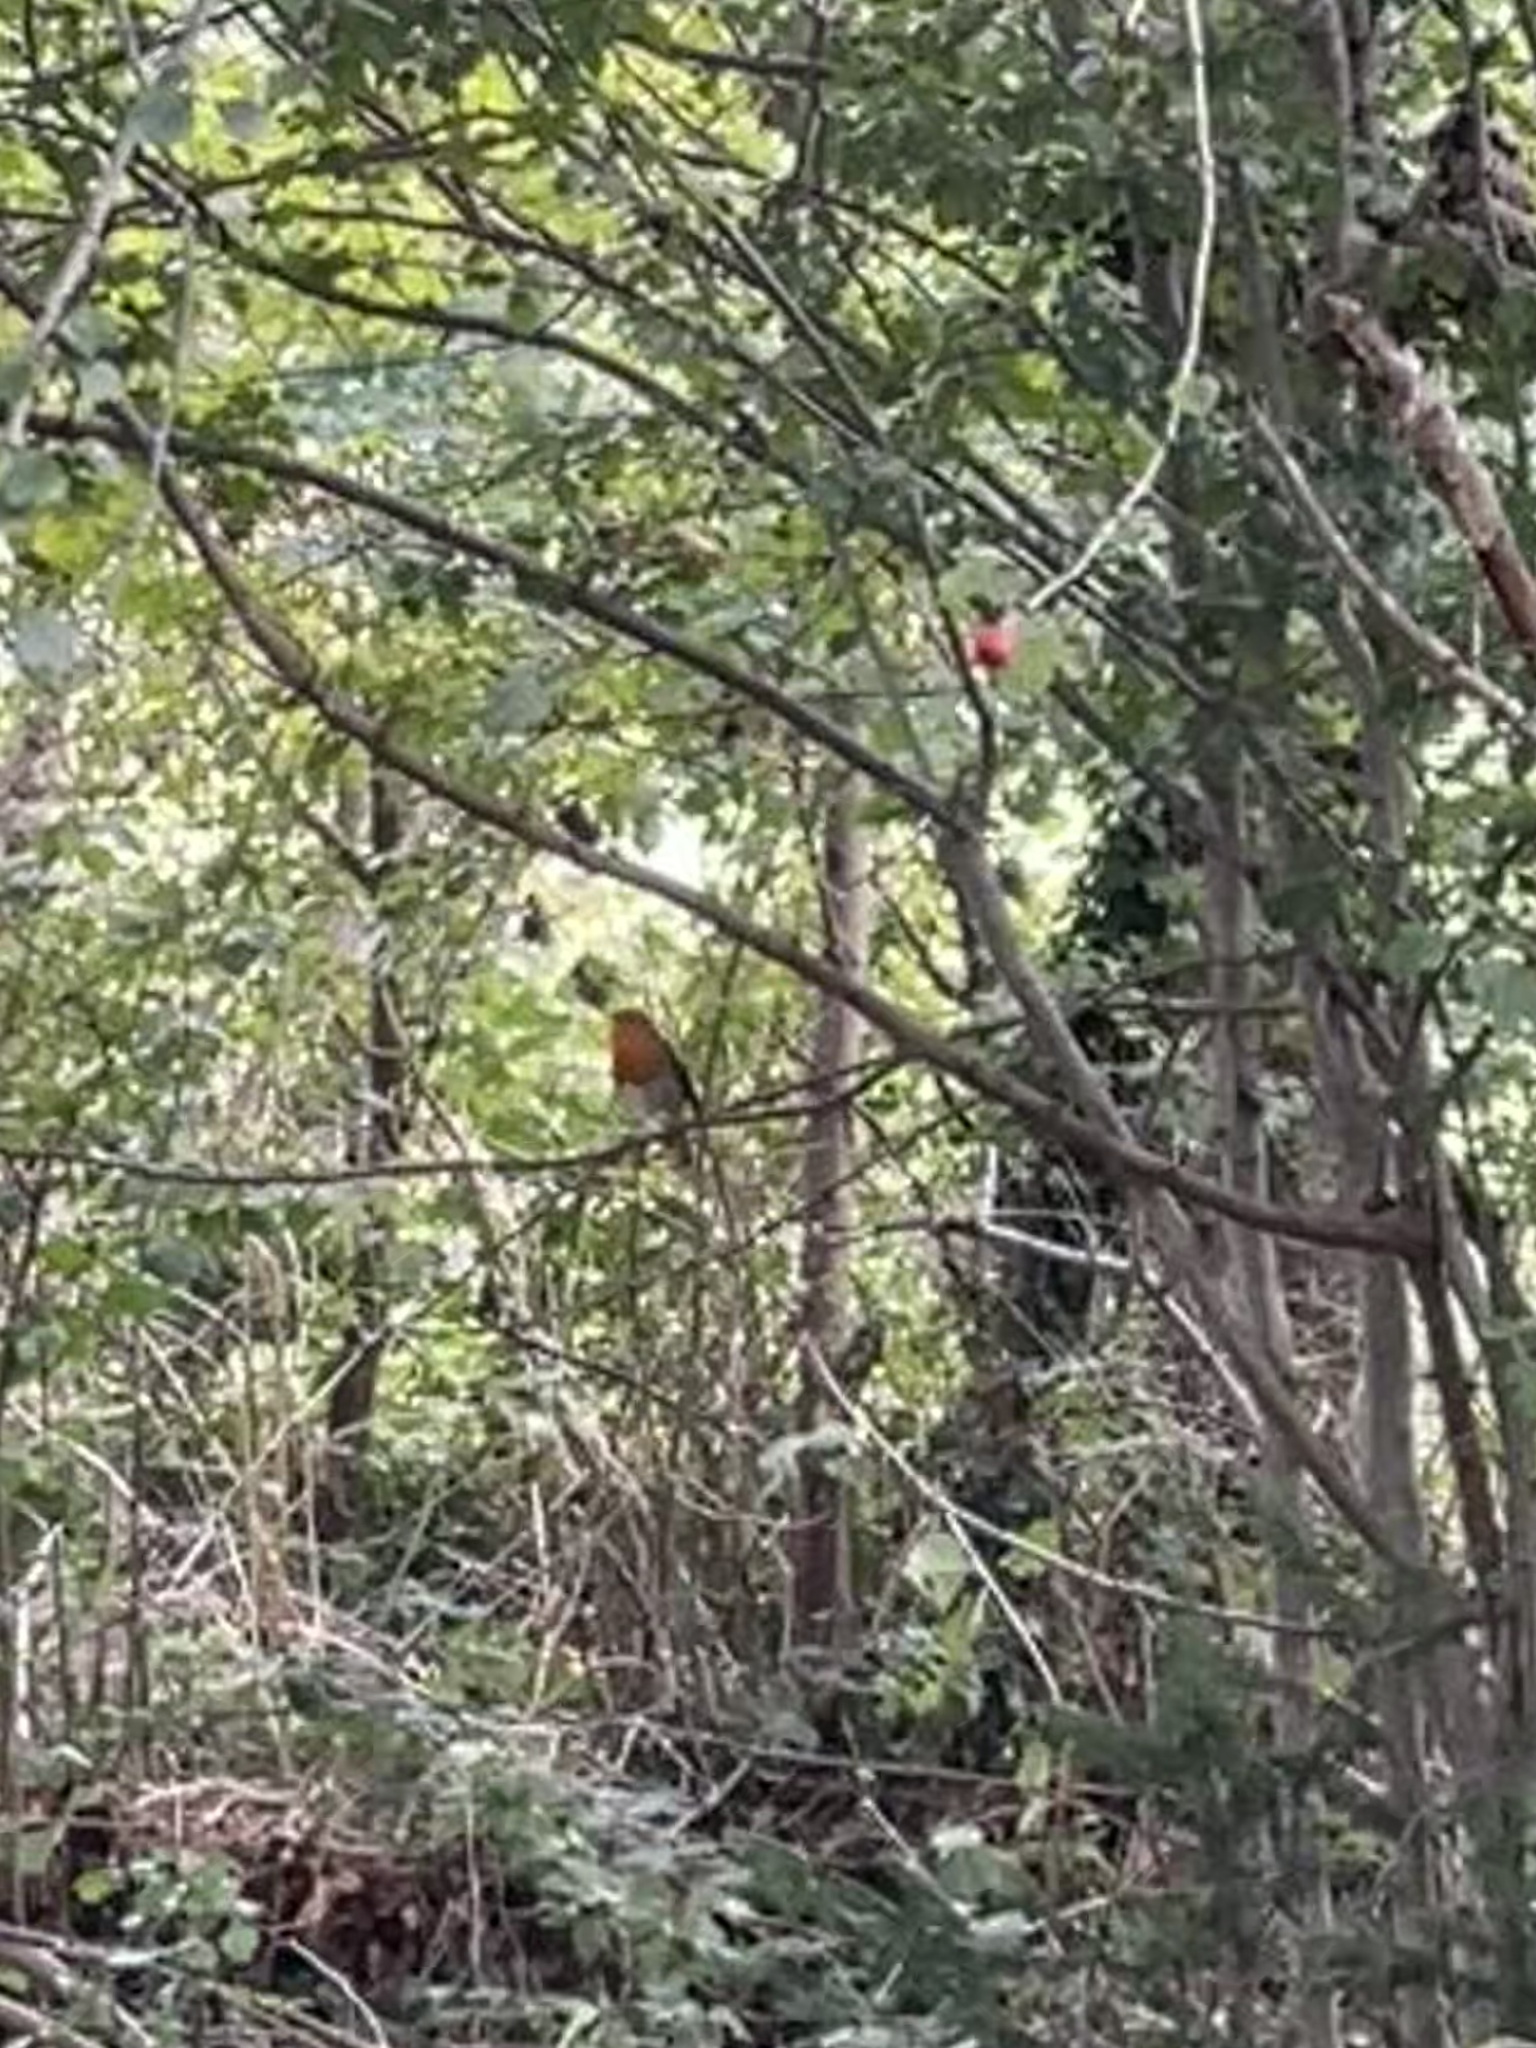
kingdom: Animalia
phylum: Chordata
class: Aves
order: Passeriformes
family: Muscicapidae
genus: Erithacus
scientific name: Erithacus rubecula
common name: European robin
